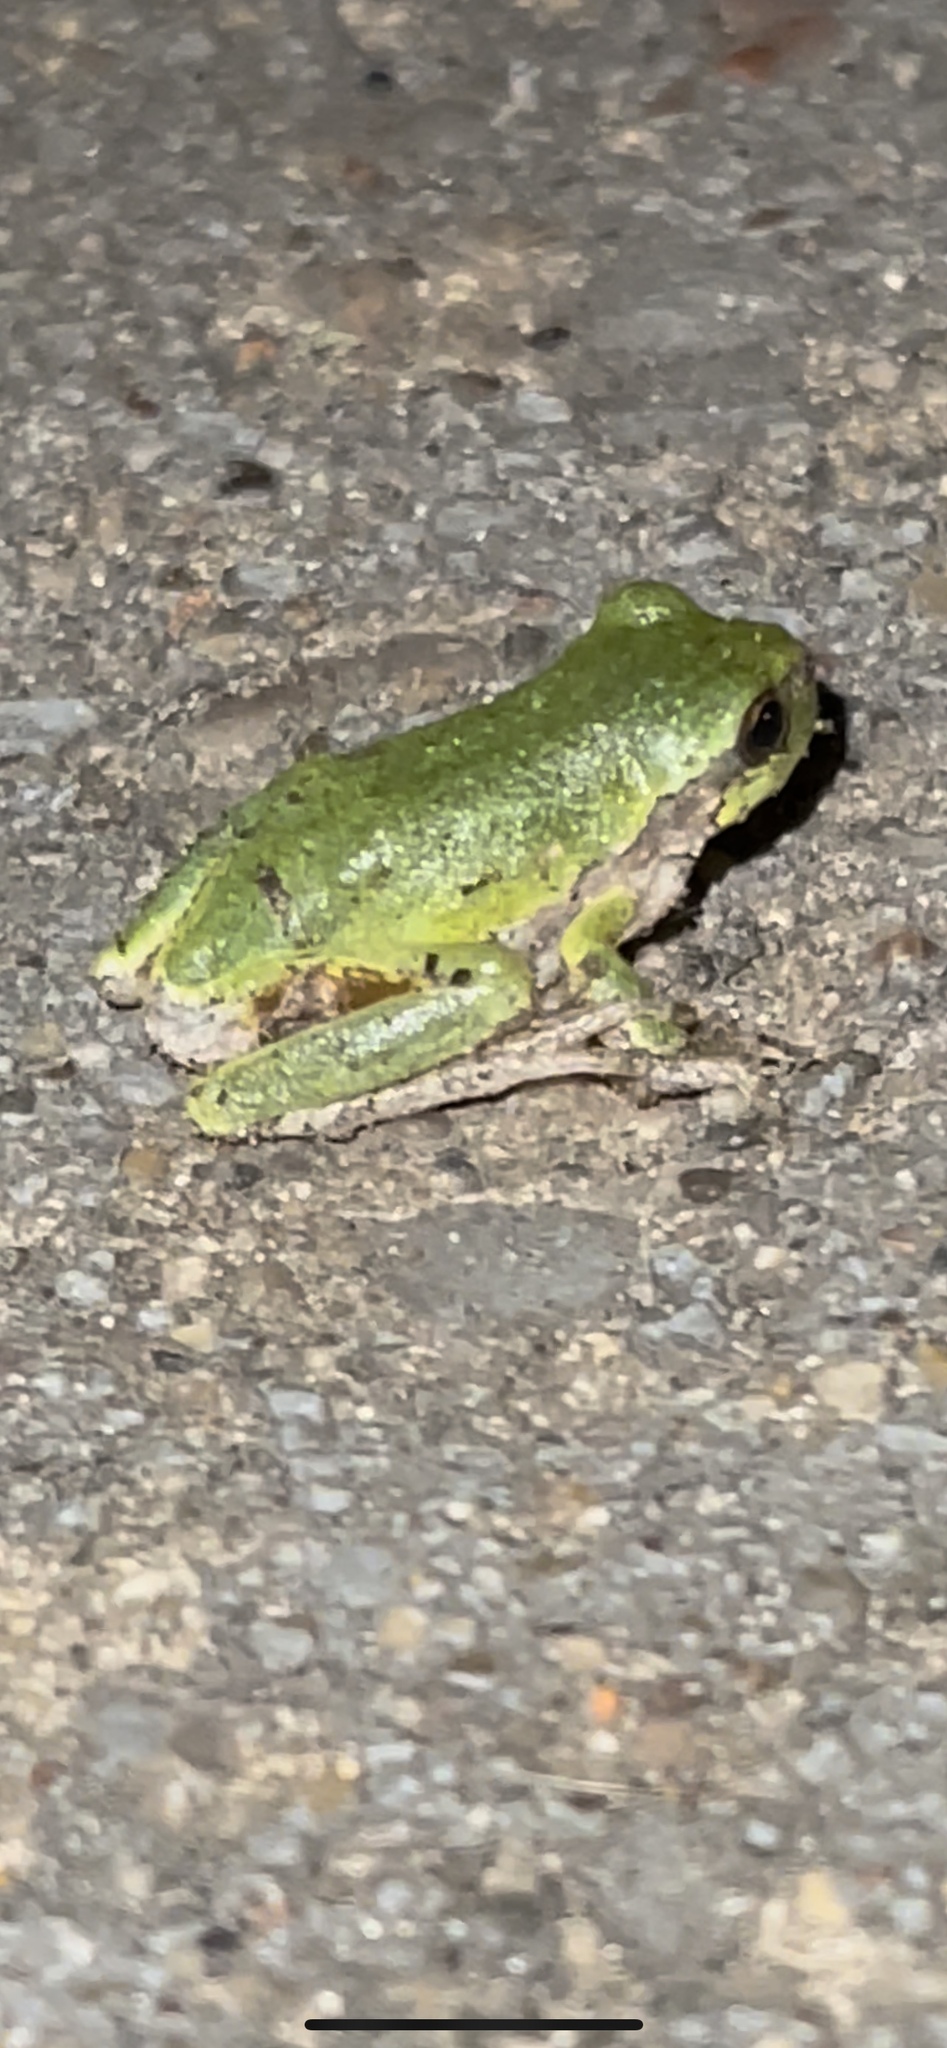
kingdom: Animalia
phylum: Chordata
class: Amphibia
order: Anura
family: Hylidae
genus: Hyla
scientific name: Hyla
